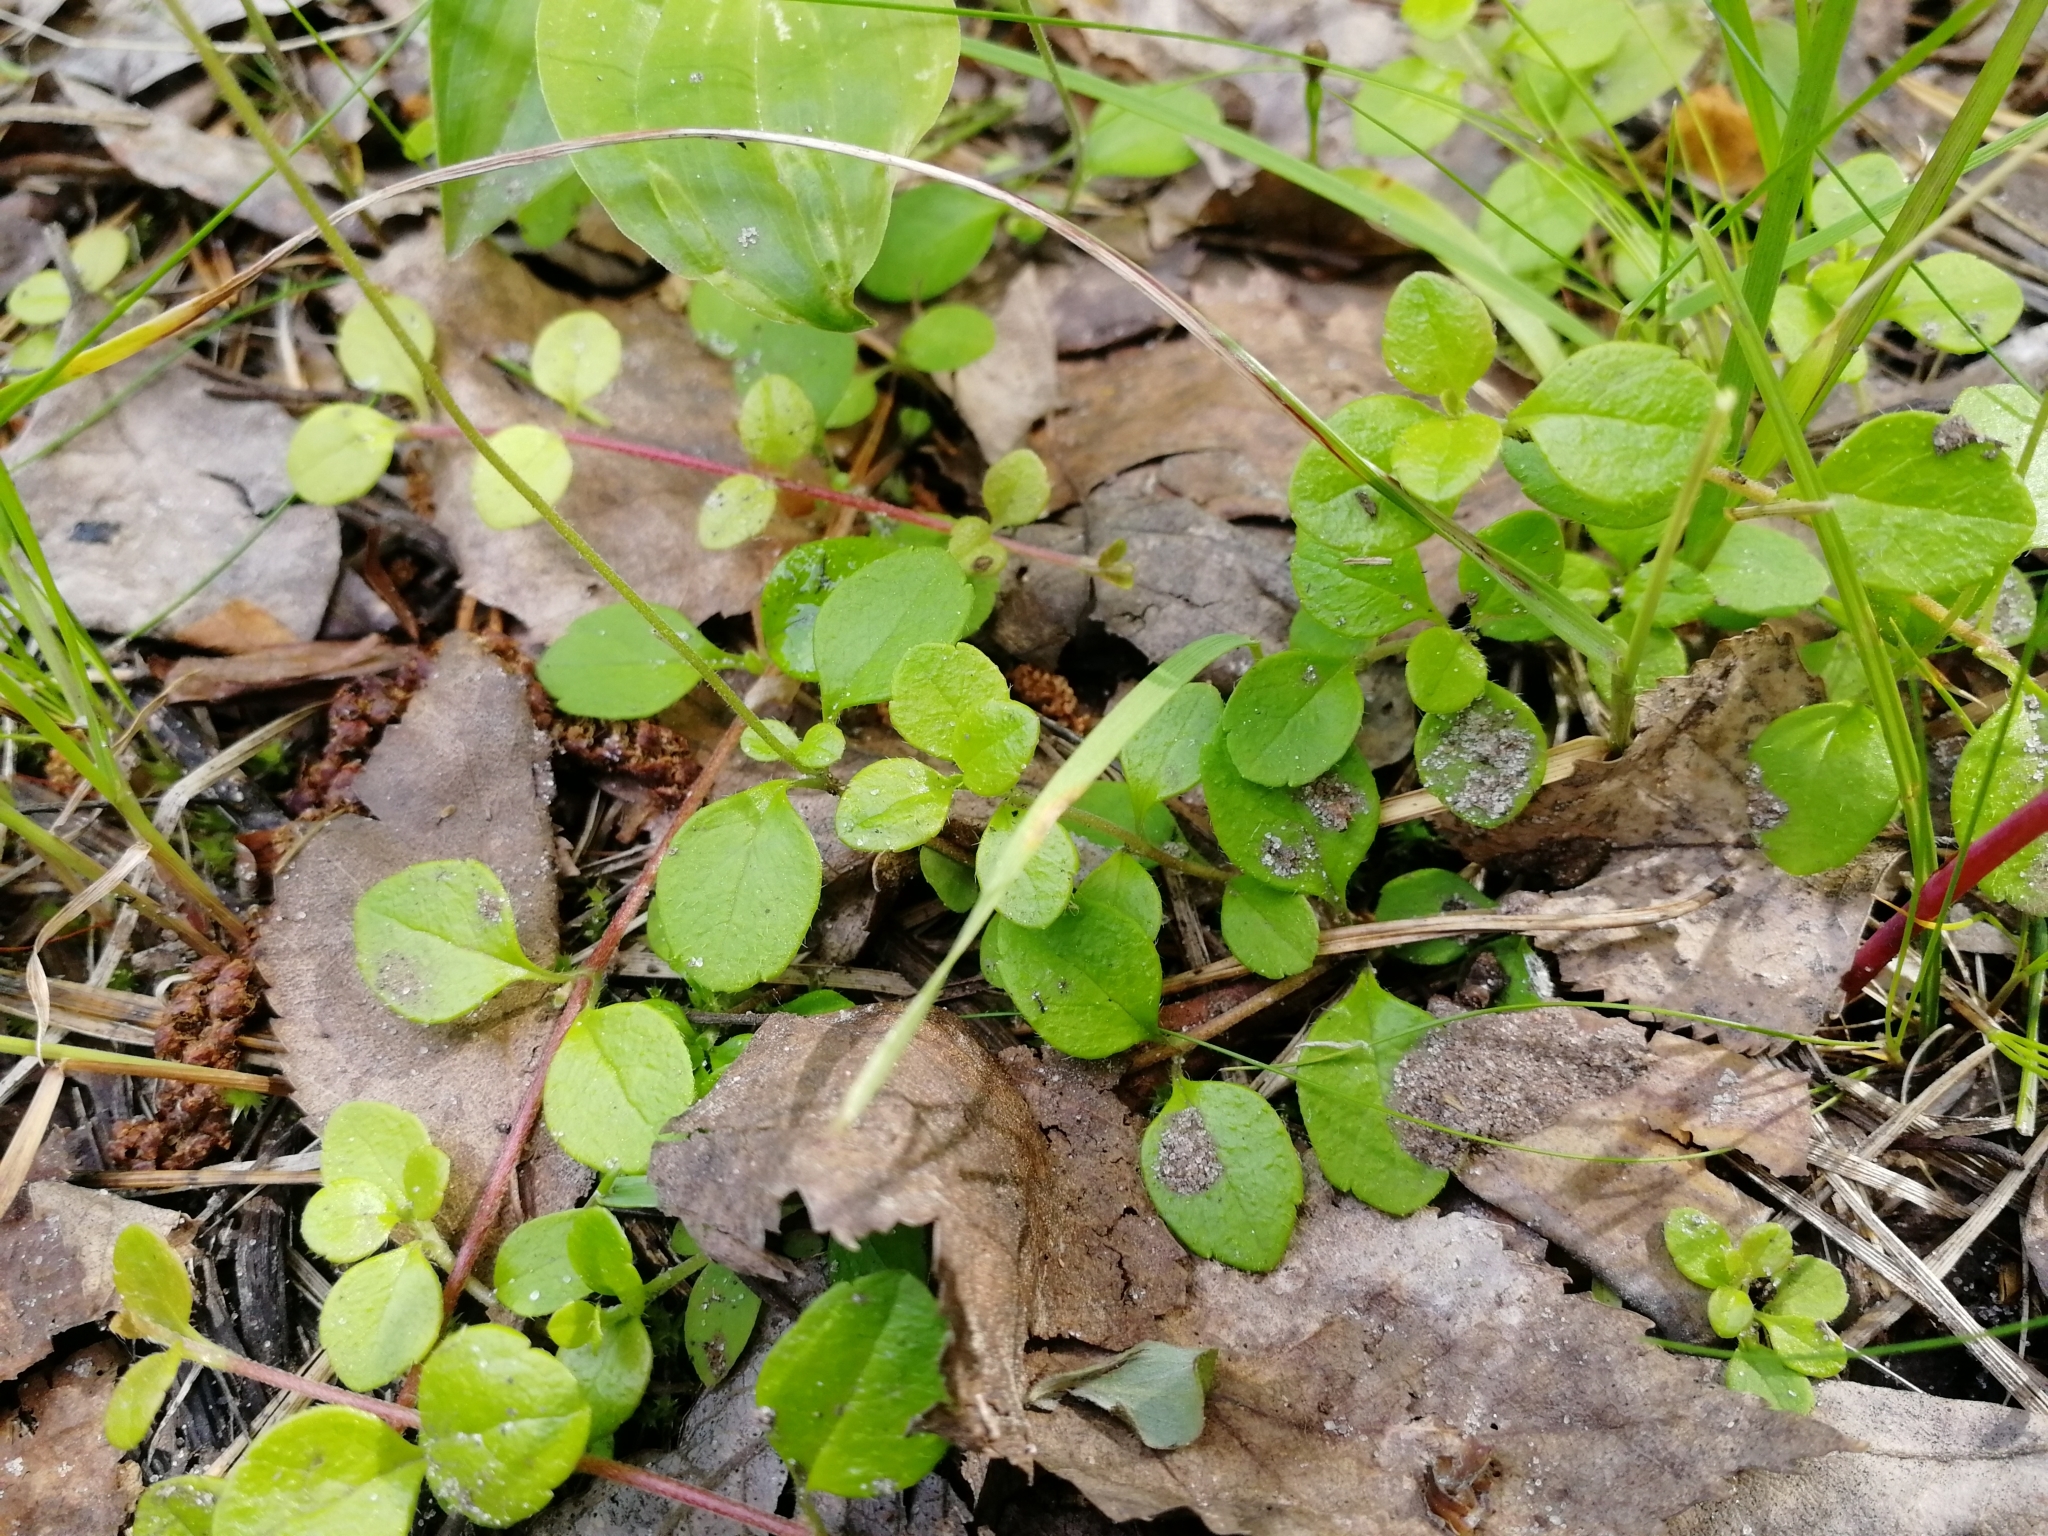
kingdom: Plantae
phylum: Tracheophyta
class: Magnoliopsida
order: Dipsacales
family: Caprifoliaceae
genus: Linnaea
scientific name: Linnaea borealis
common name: Twinflower
